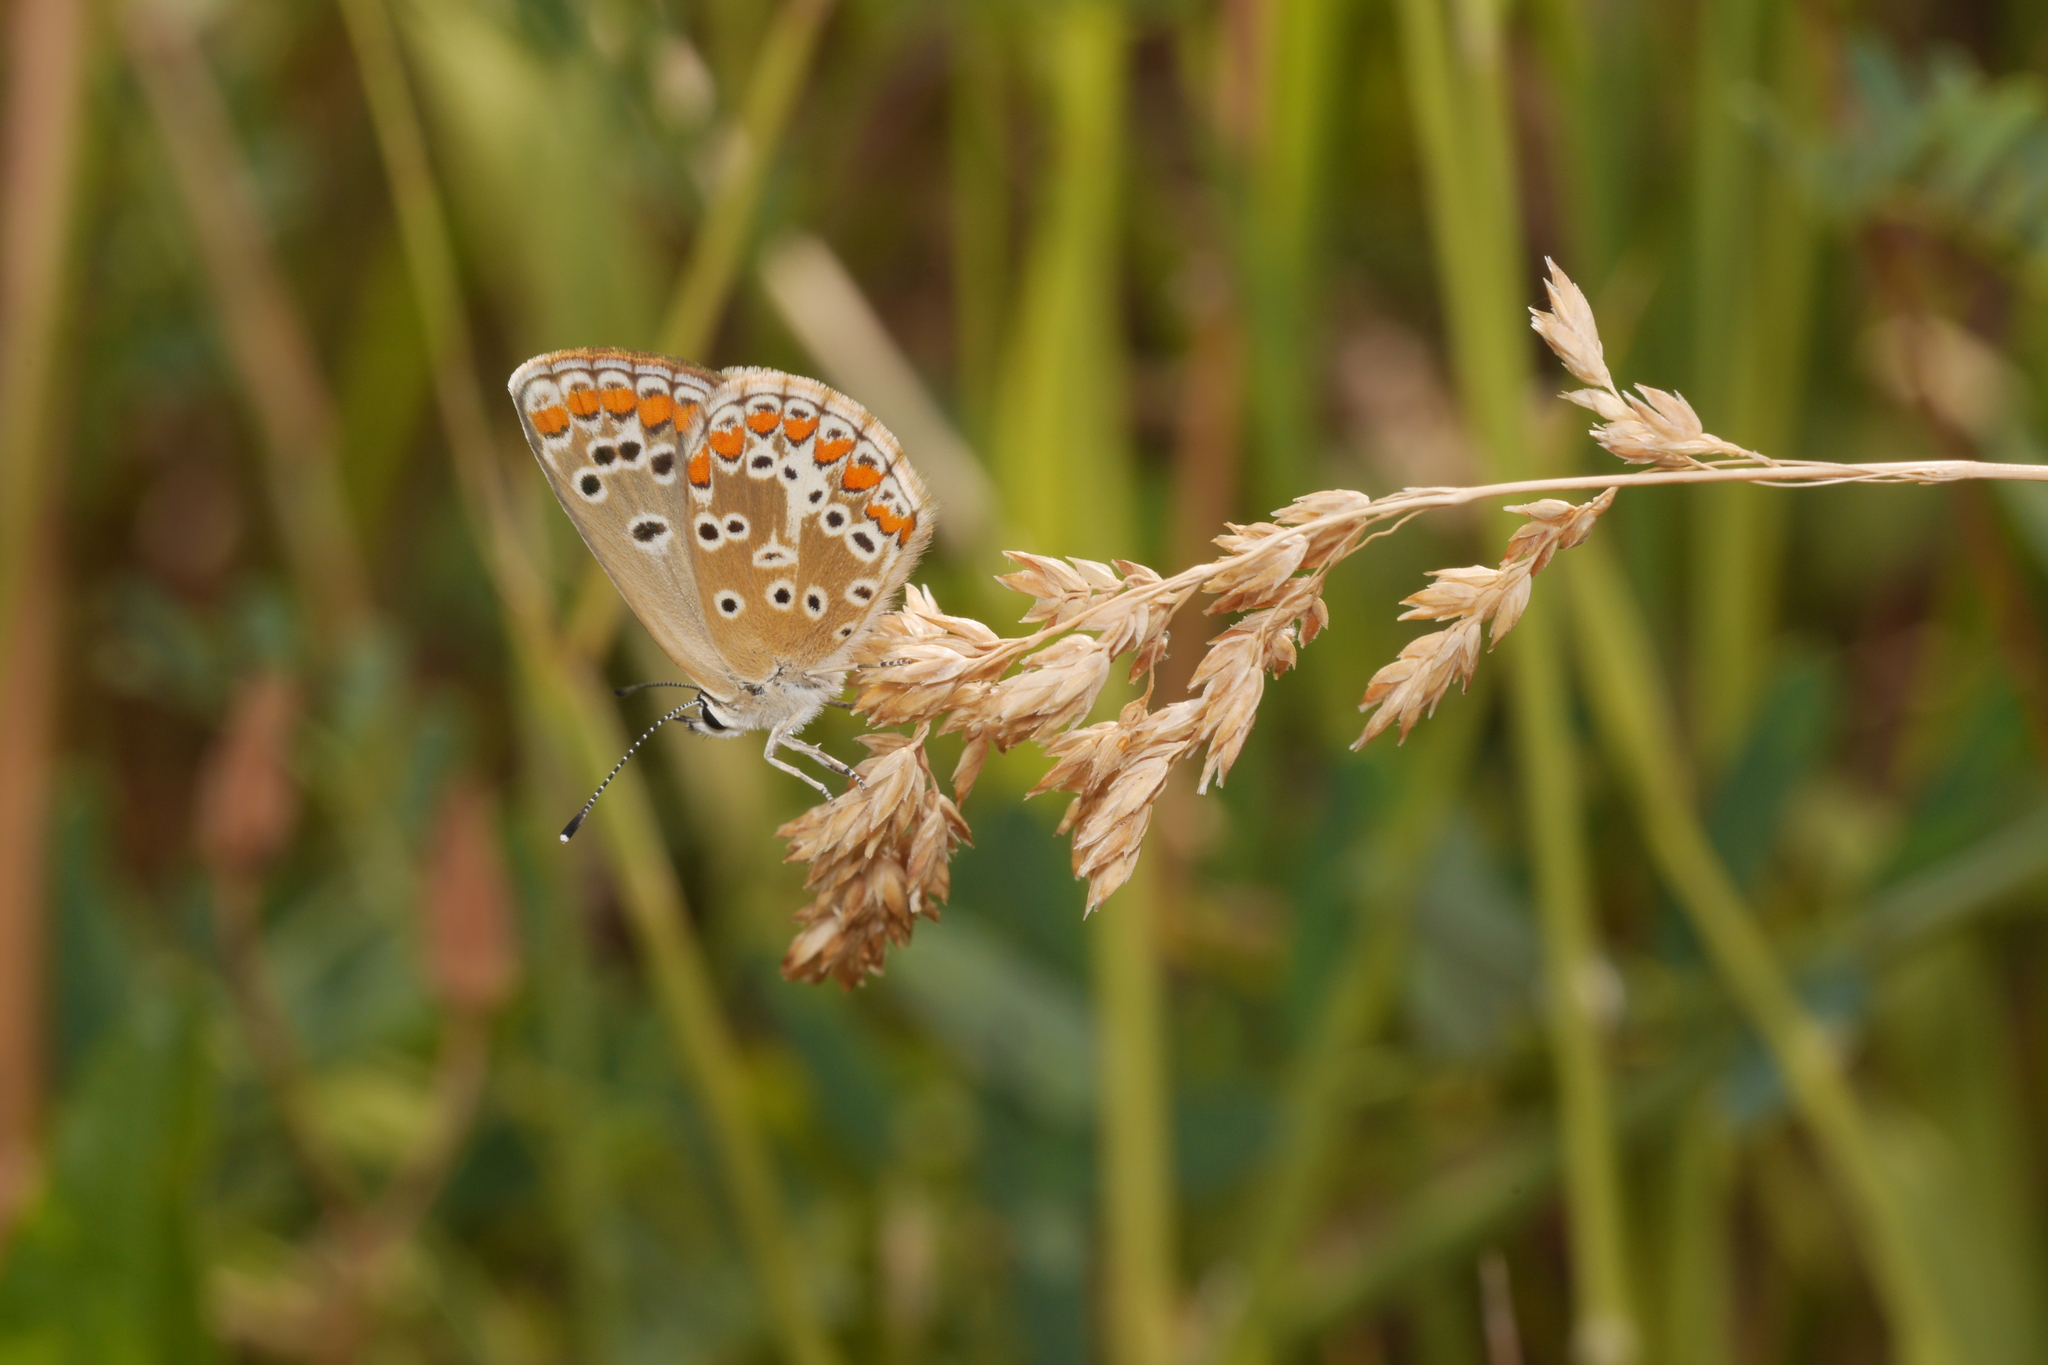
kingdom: Animalia
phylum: Arthropoda
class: Insecta
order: Lepidoptera
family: Lycaenidae
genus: Aricia
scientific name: Aricia agestis
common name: Brown argus
